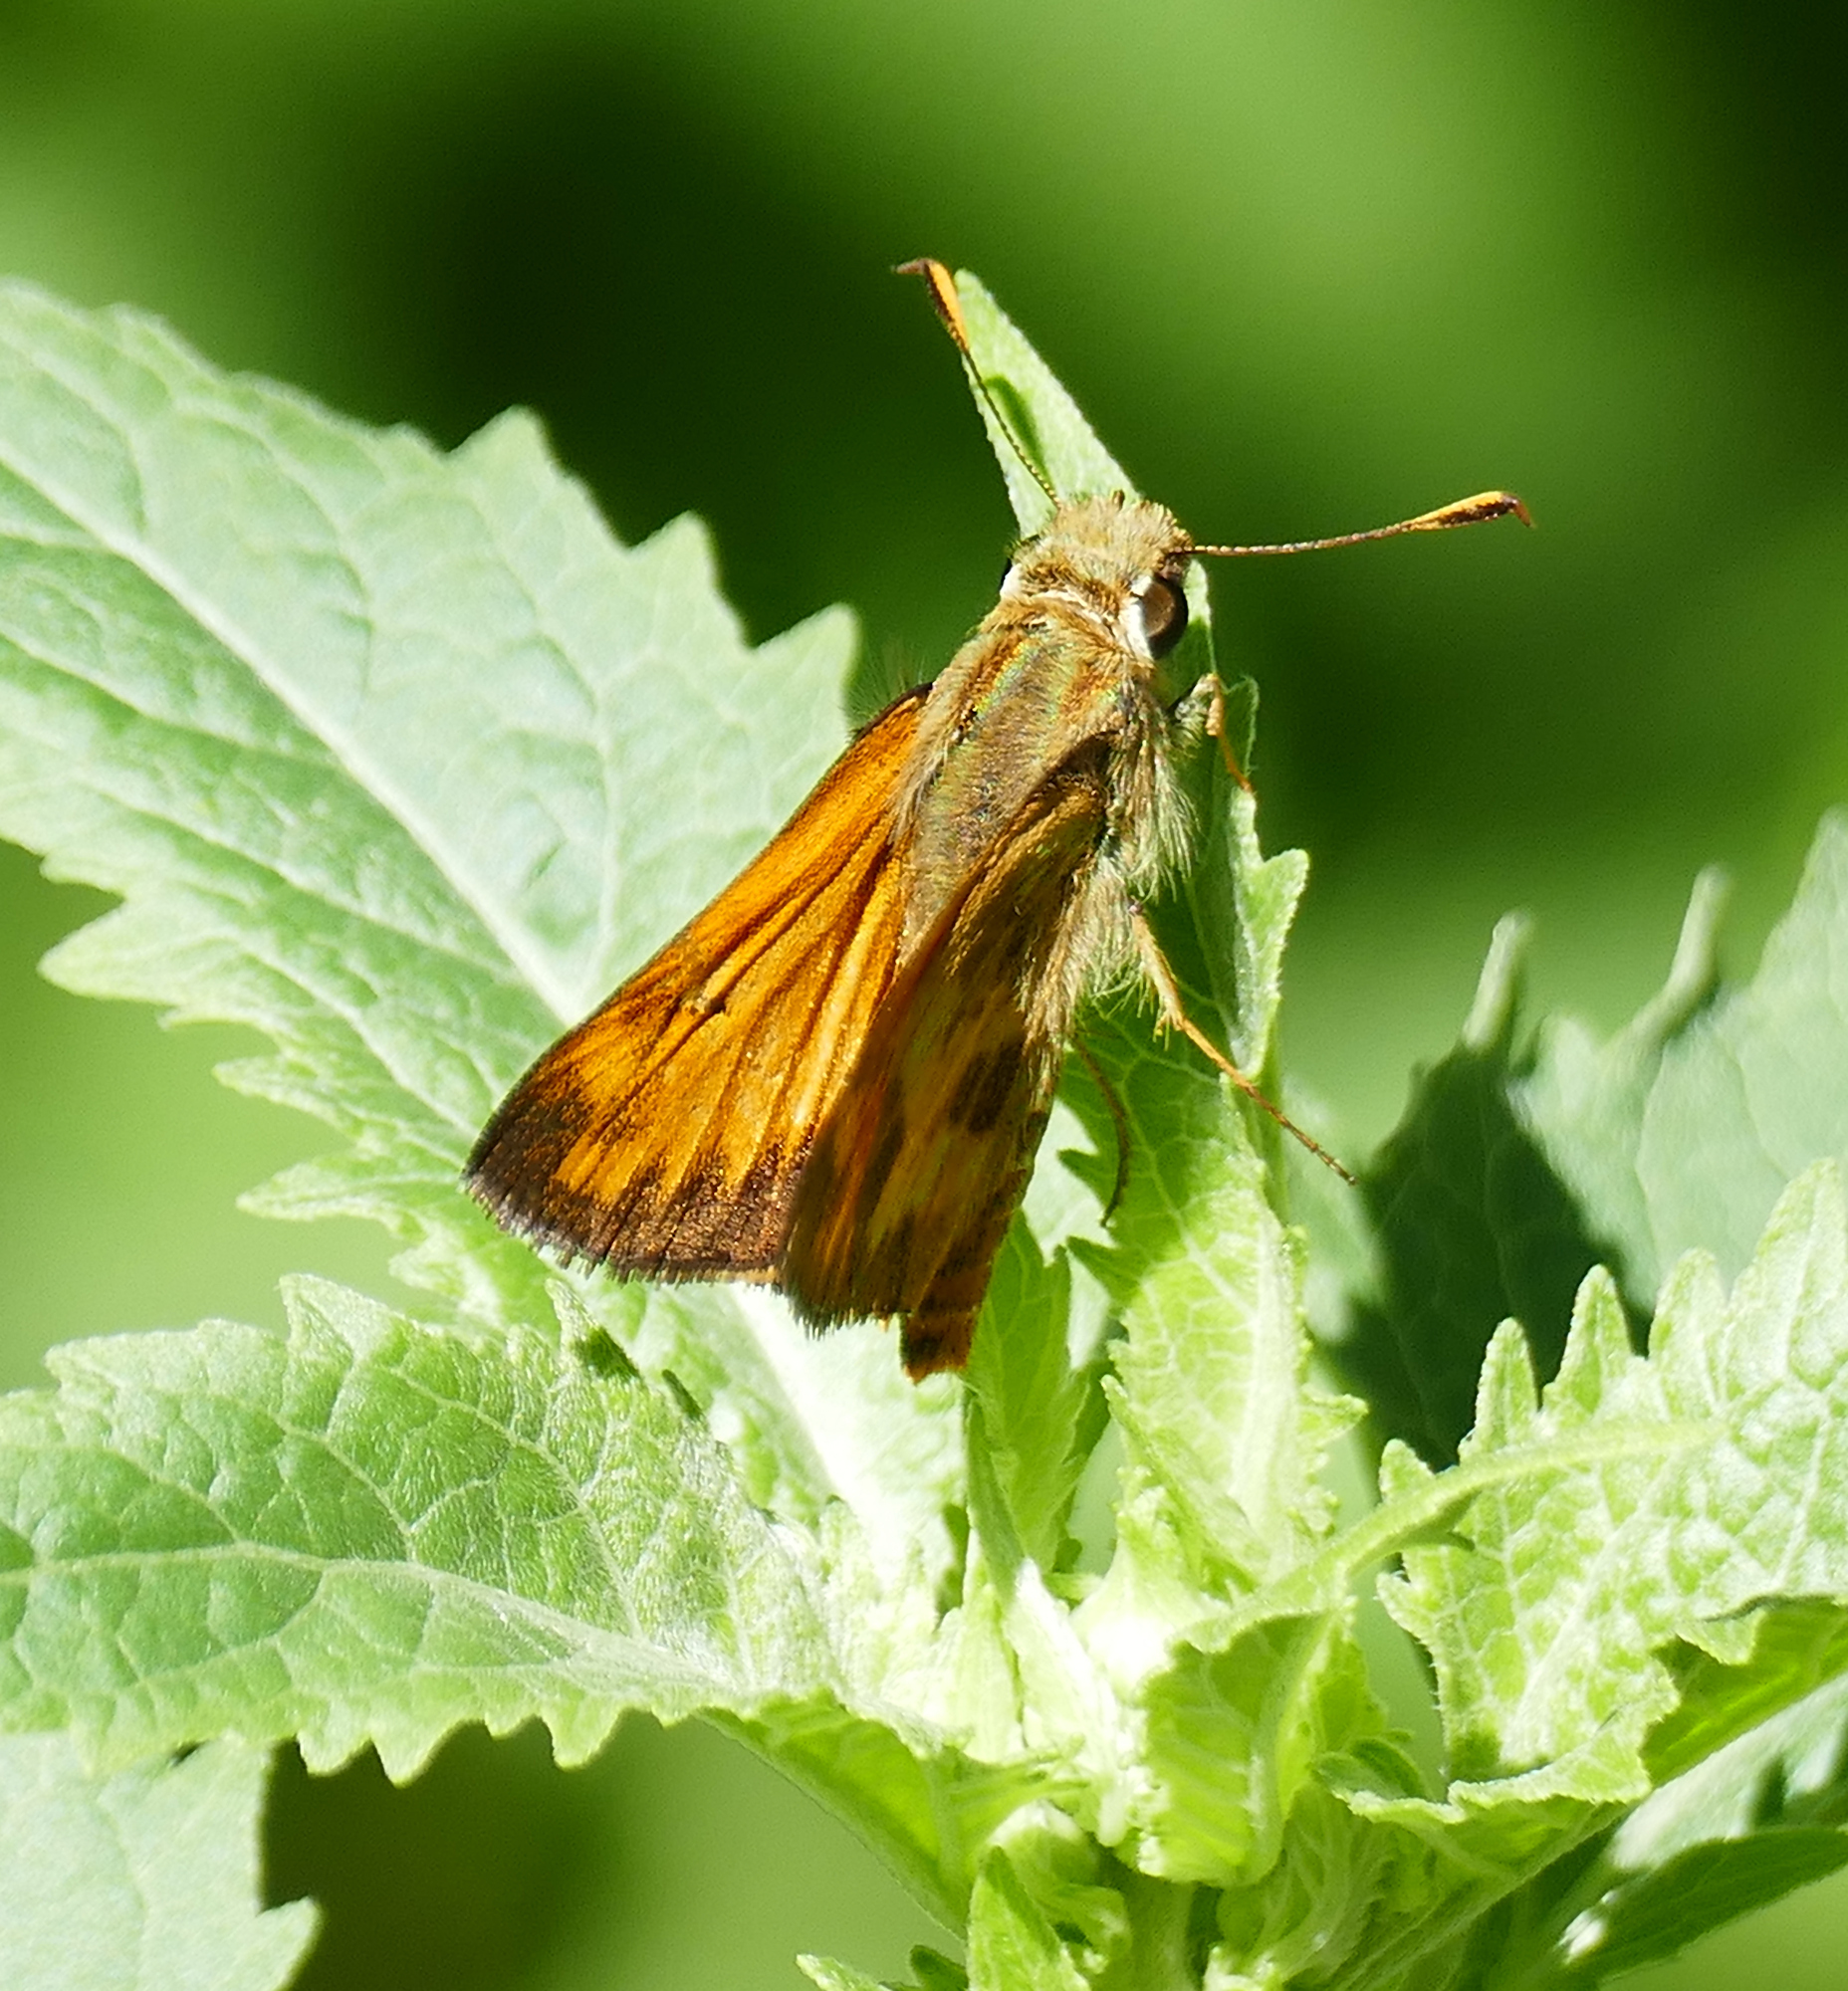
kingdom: Animalia
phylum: Arthropoda
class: Insecta
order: Lepidoptera
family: Hesperiidae
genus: Lon
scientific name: Lon taxiles
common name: Taxiles skipper
